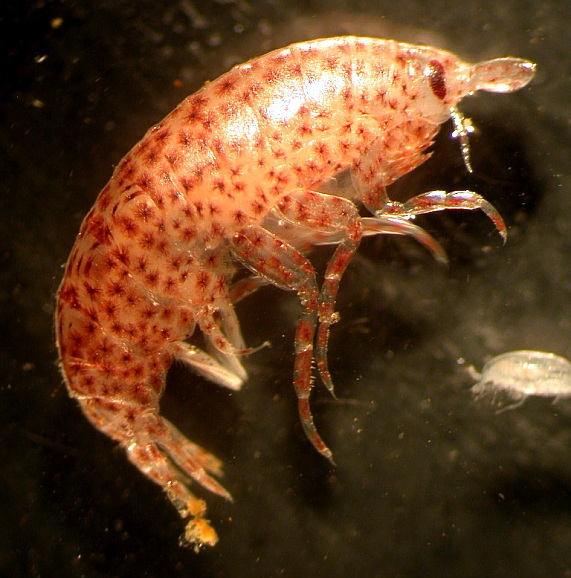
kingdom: Animalia
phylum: Arthropoda
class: Malacostraca
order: Amphipoda
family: Vibiliidae
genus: Vibilia
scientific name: Vibilia propinqua
